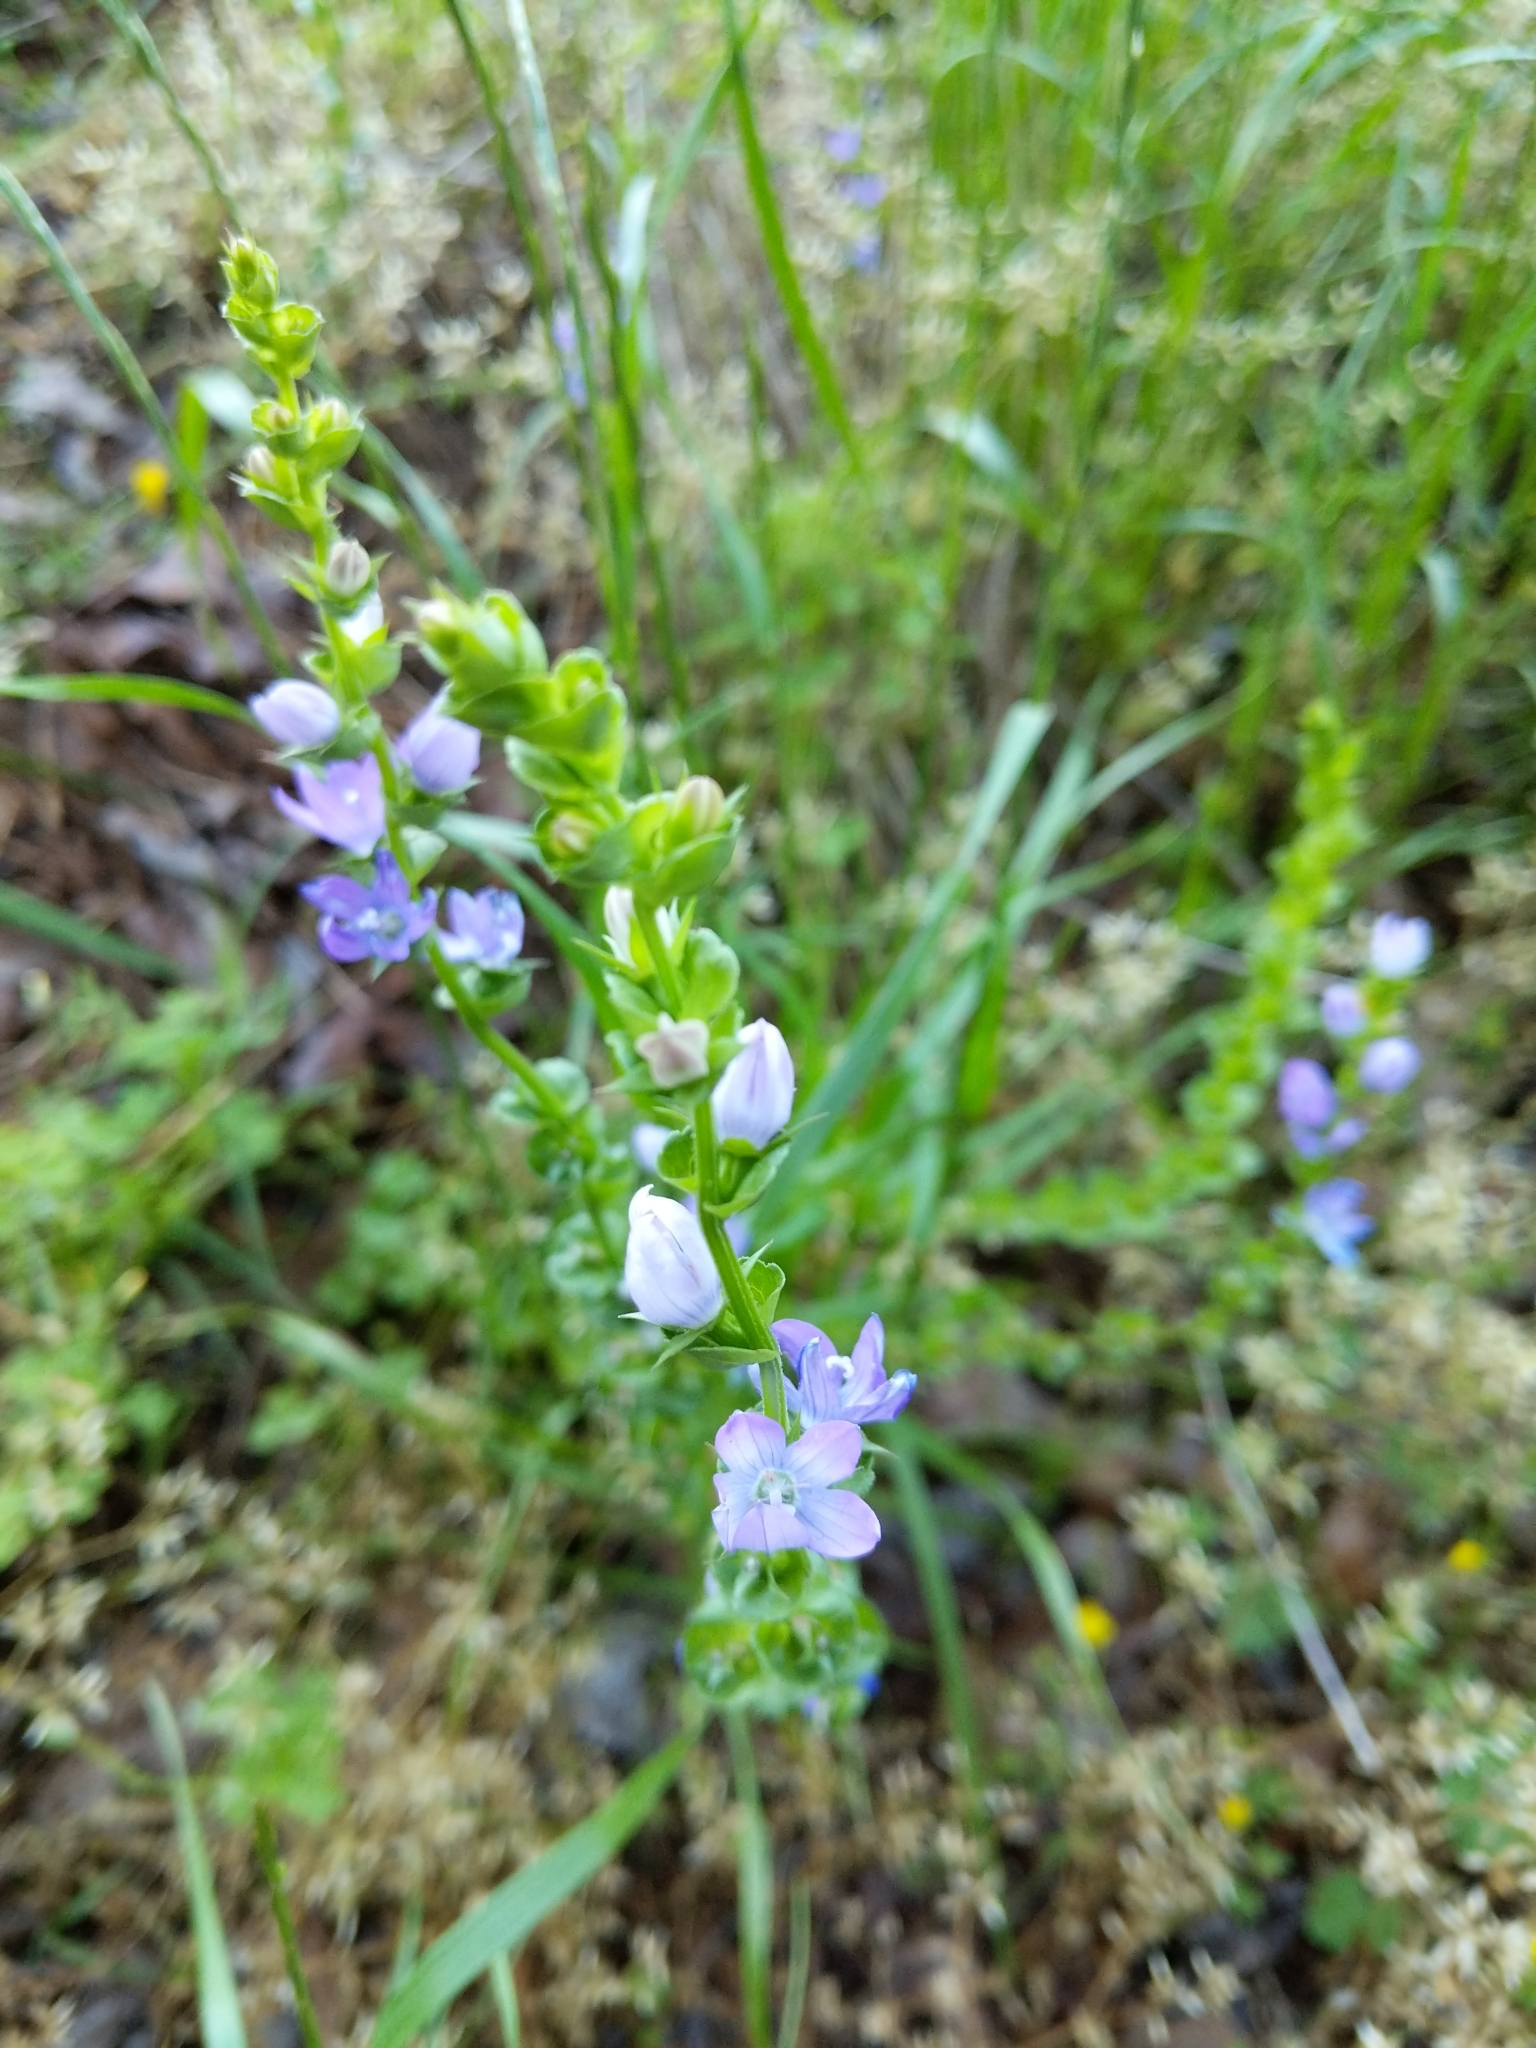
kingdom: Plantae
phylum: Tracheophyta
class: Magnoliopsida
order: Asterales
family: Campanulaceae
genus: Triodanis
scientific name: Triodanis perfoliata
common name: Clasping venus' looking-glass
